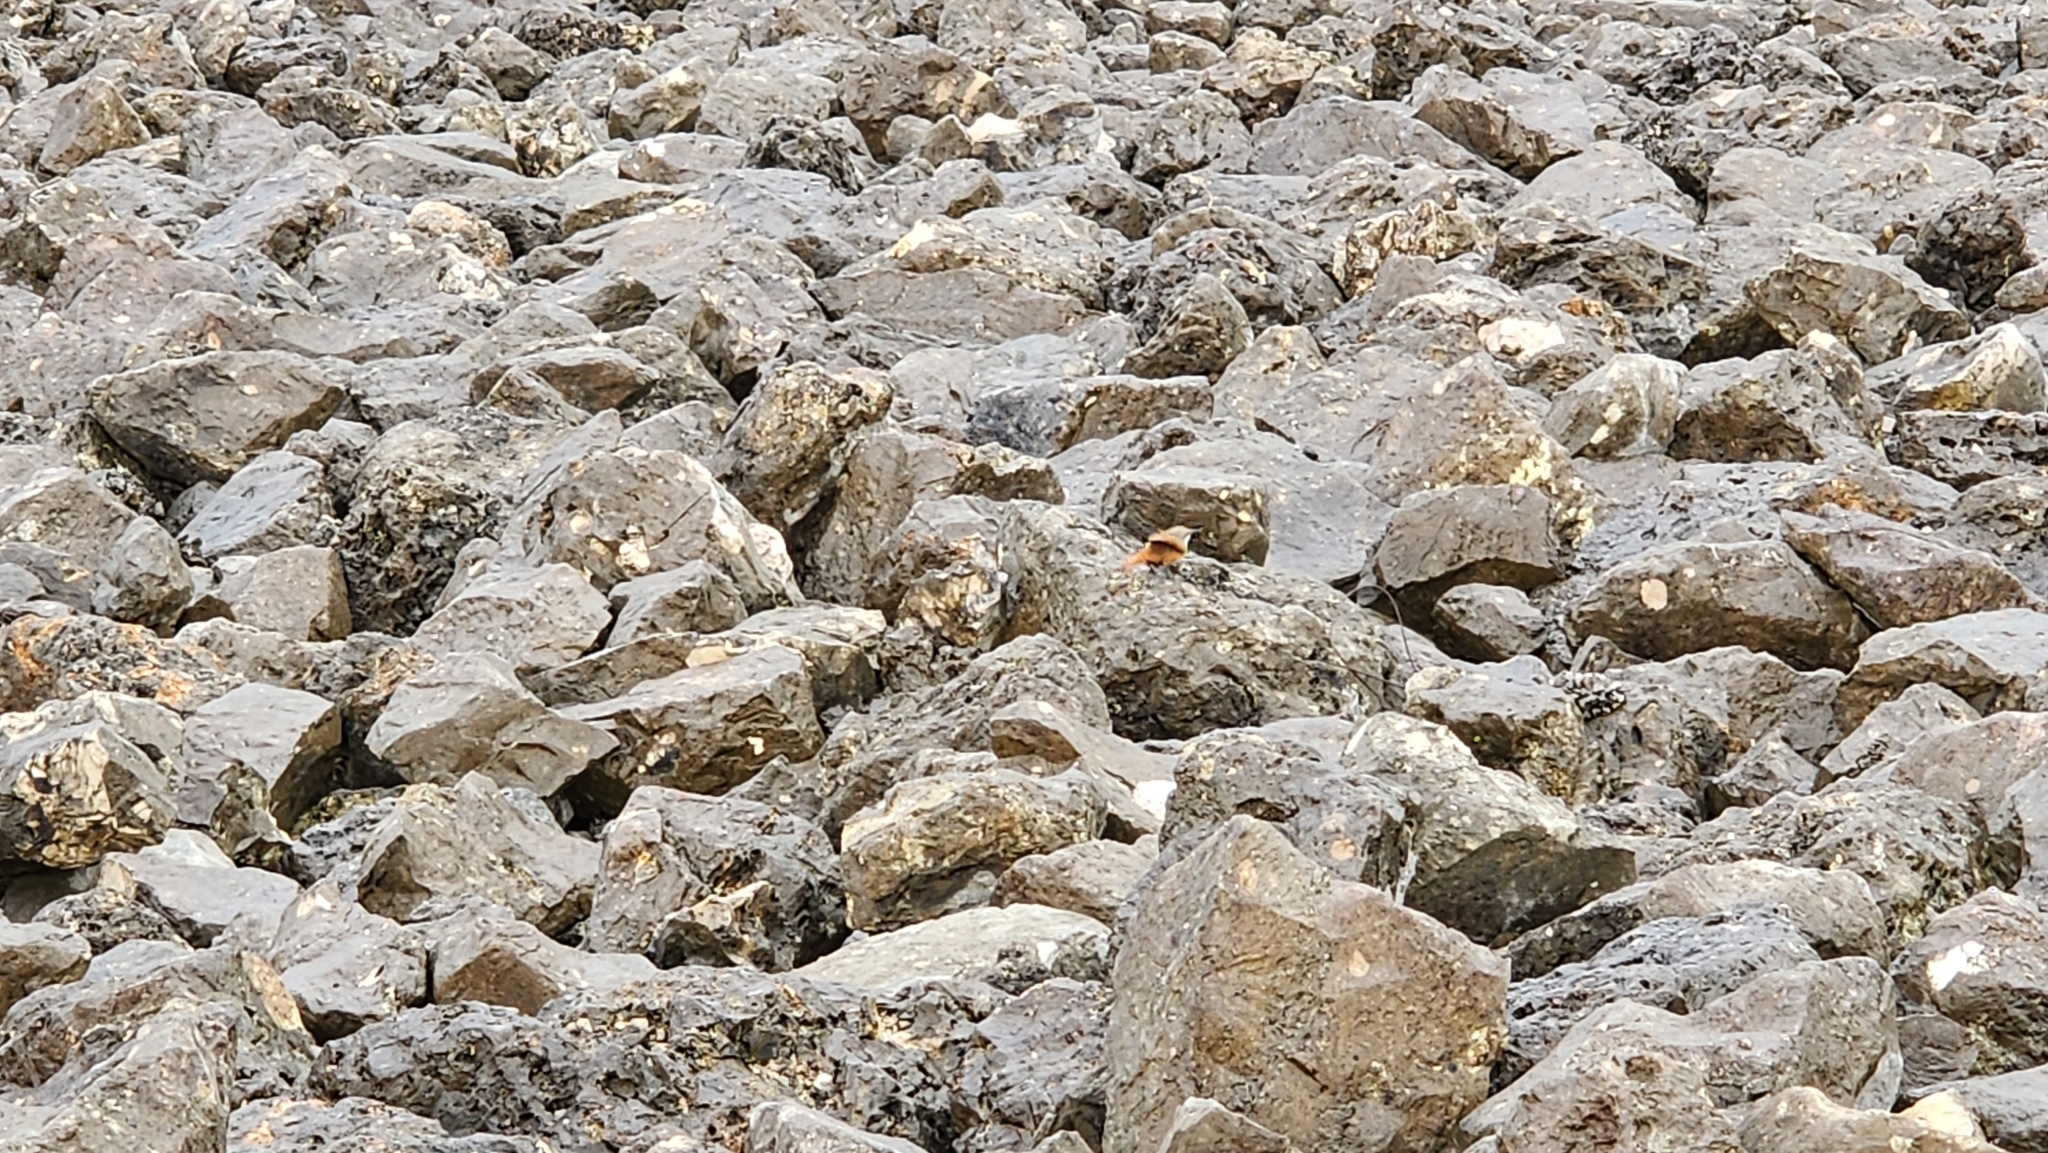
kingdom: Animalia
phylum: Chordata
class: Aves
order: Passeriformes
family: Troglodytidae
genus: Catherpes
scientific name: Catherpes mexicanus
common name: Canyon wren
